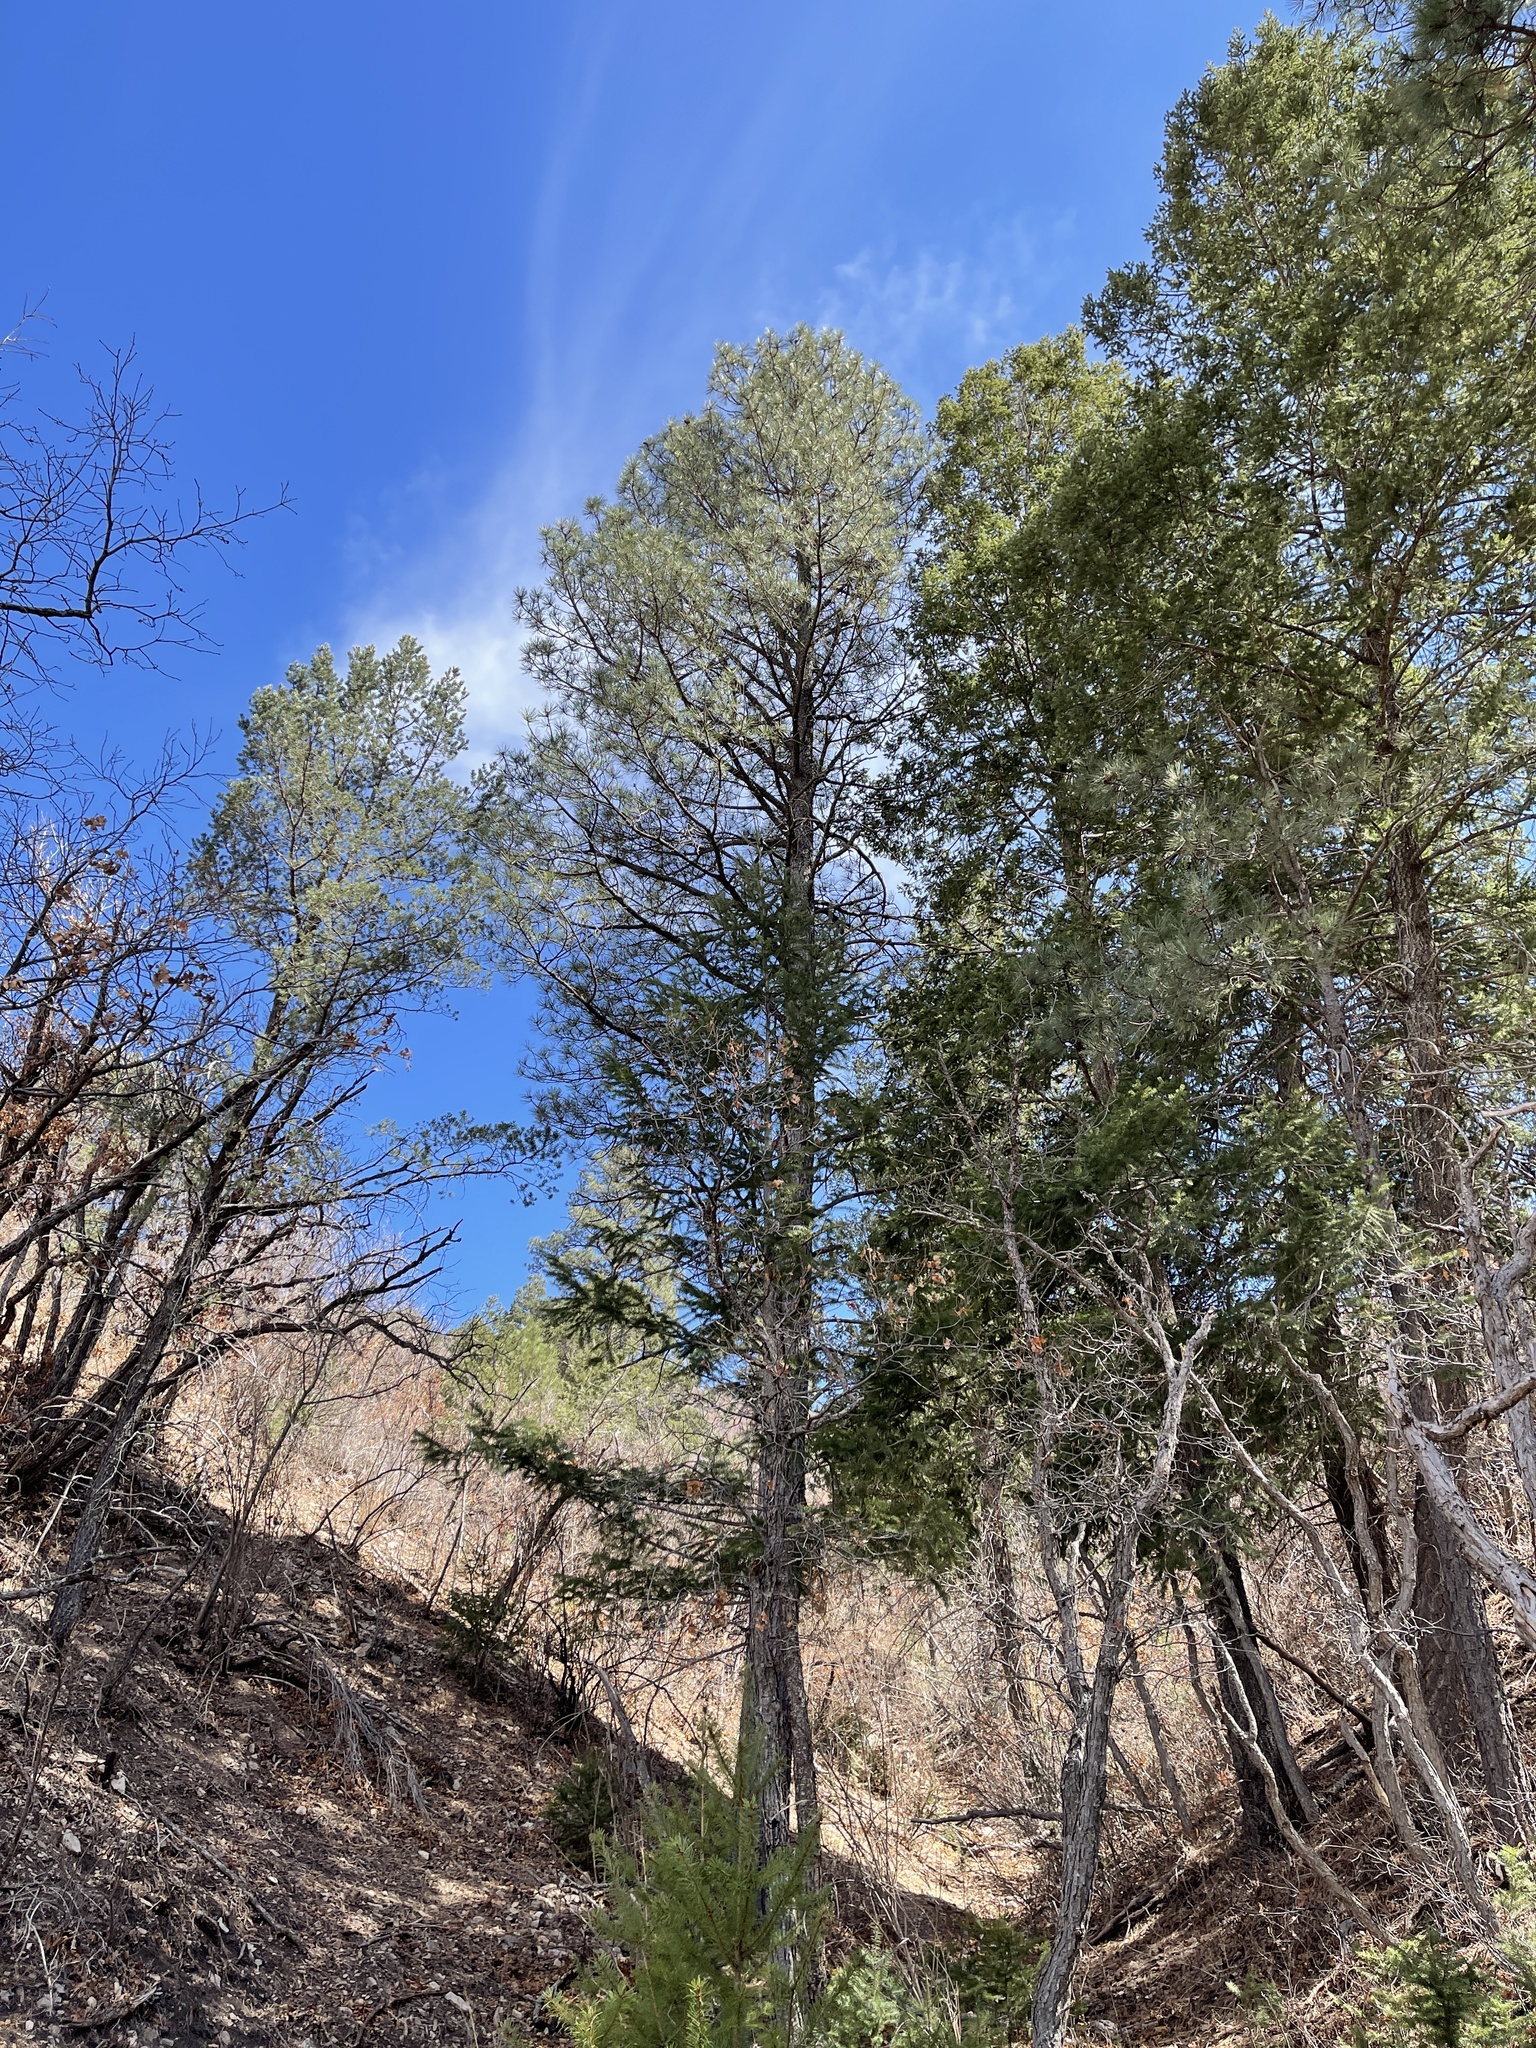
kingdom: Plantae
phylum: Tracheophyta
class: Pinopsida
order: Pinales
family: Pinaceae
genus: Pinus
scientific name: Pinus ponderosa
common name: Western yellow-pine
